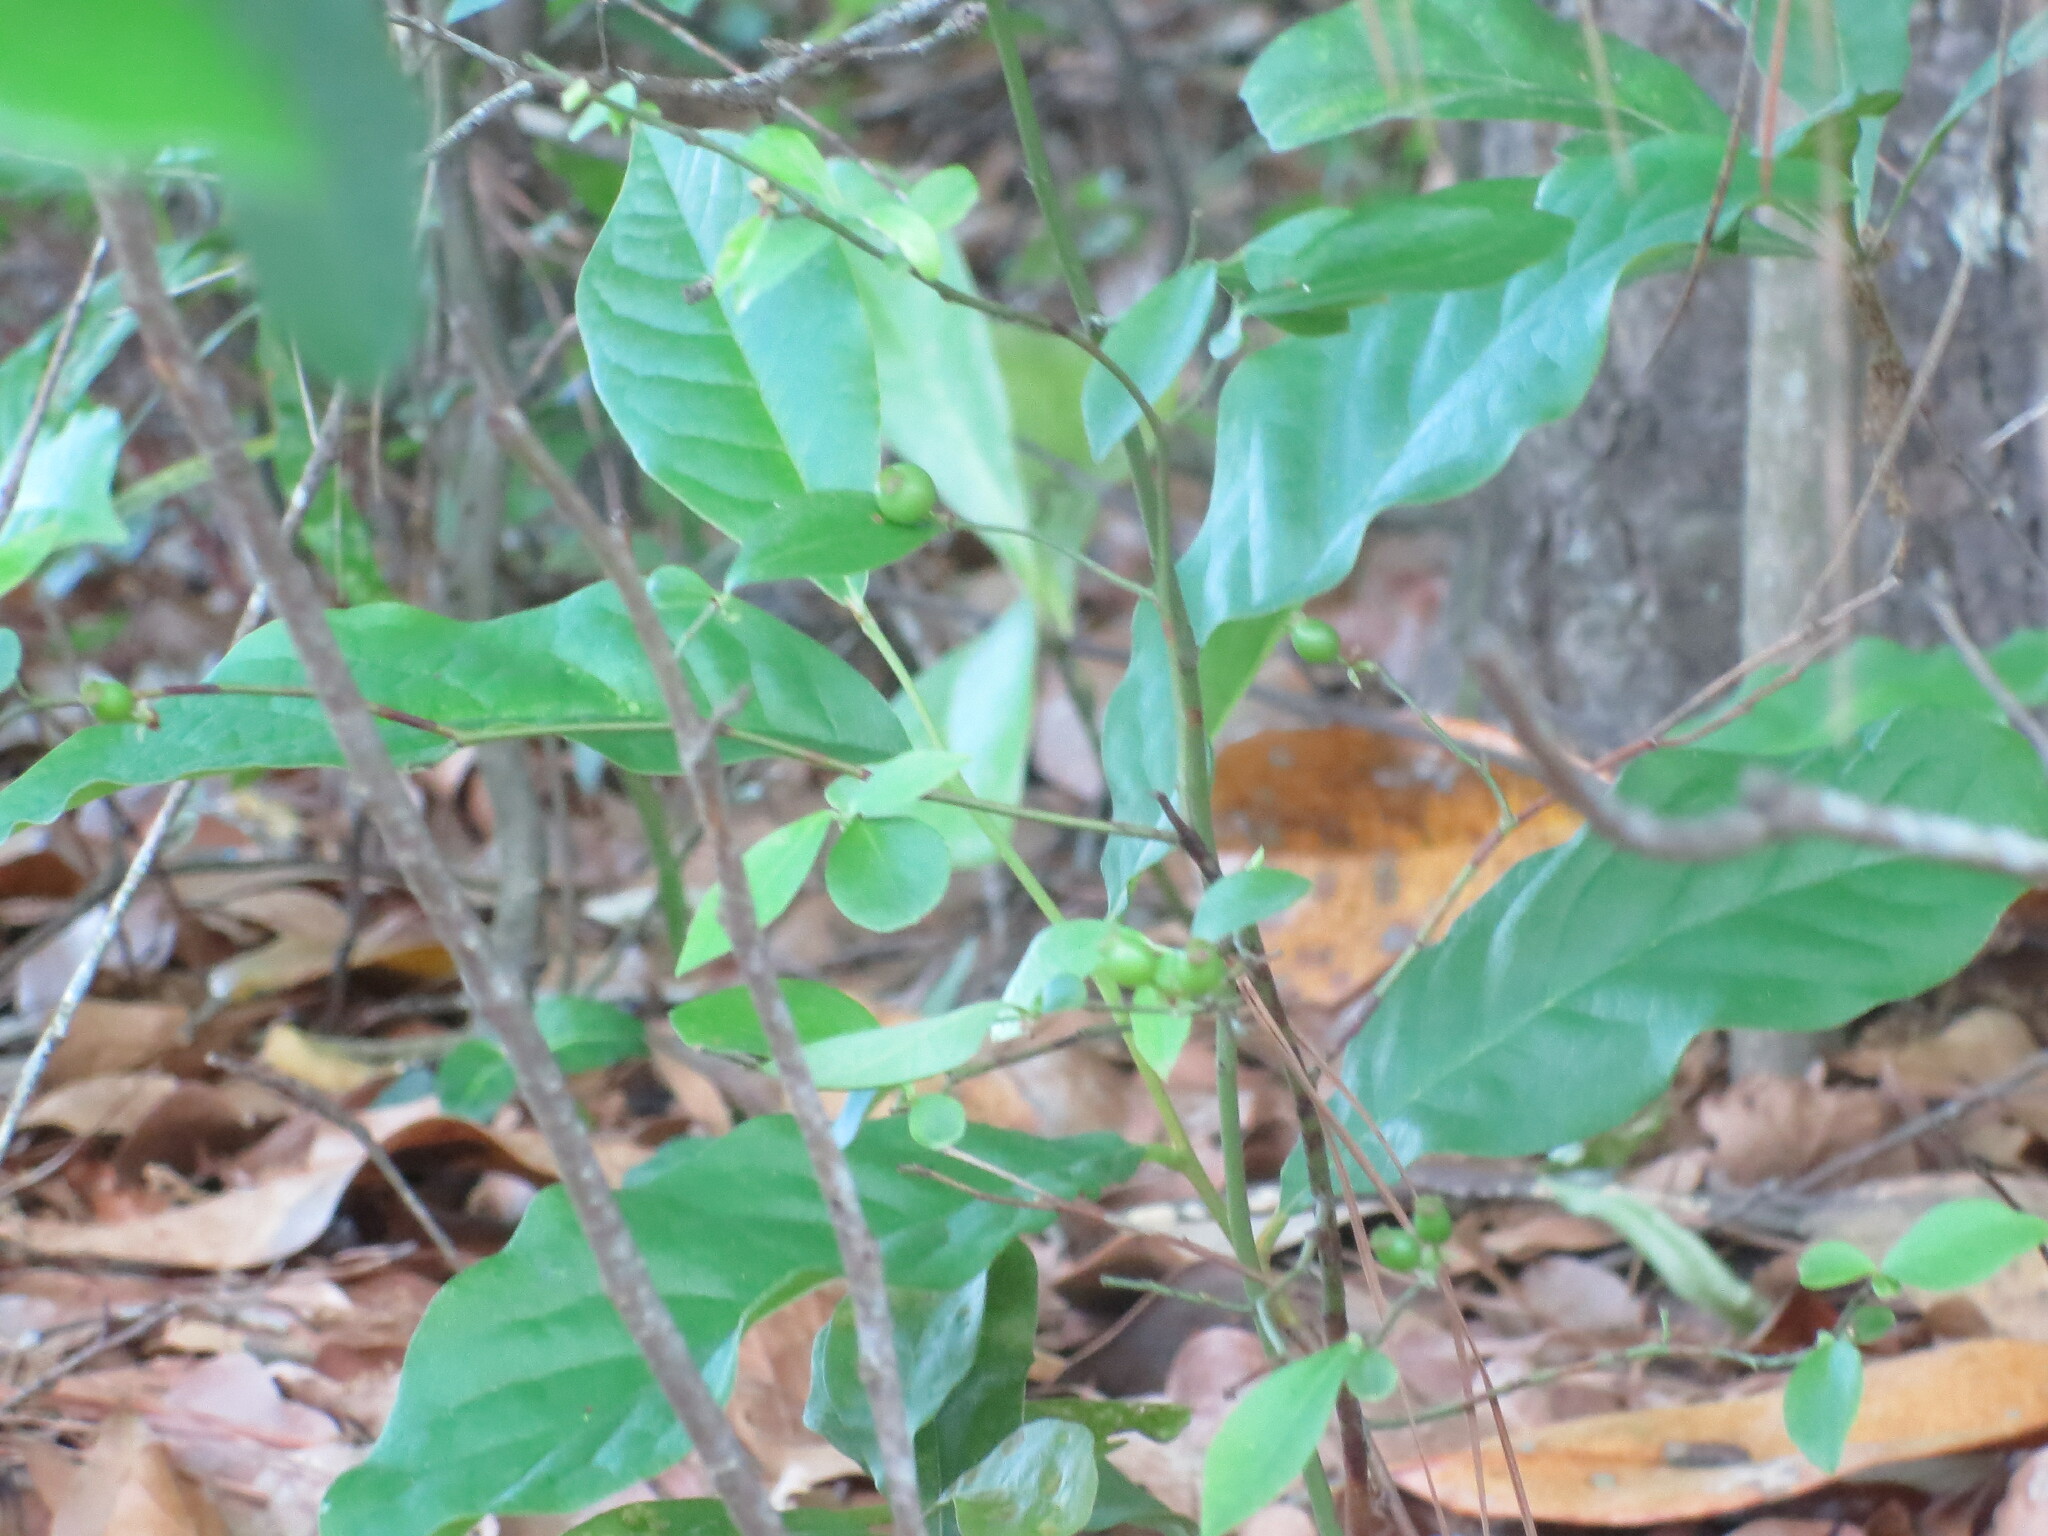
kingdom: Plantae
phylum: Tracheophyta
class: Magnoliopsida
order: Magnoliales
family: Annonaceae
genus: Asimina
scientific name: Asimina parviflora
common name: Dwarf pawpaw
